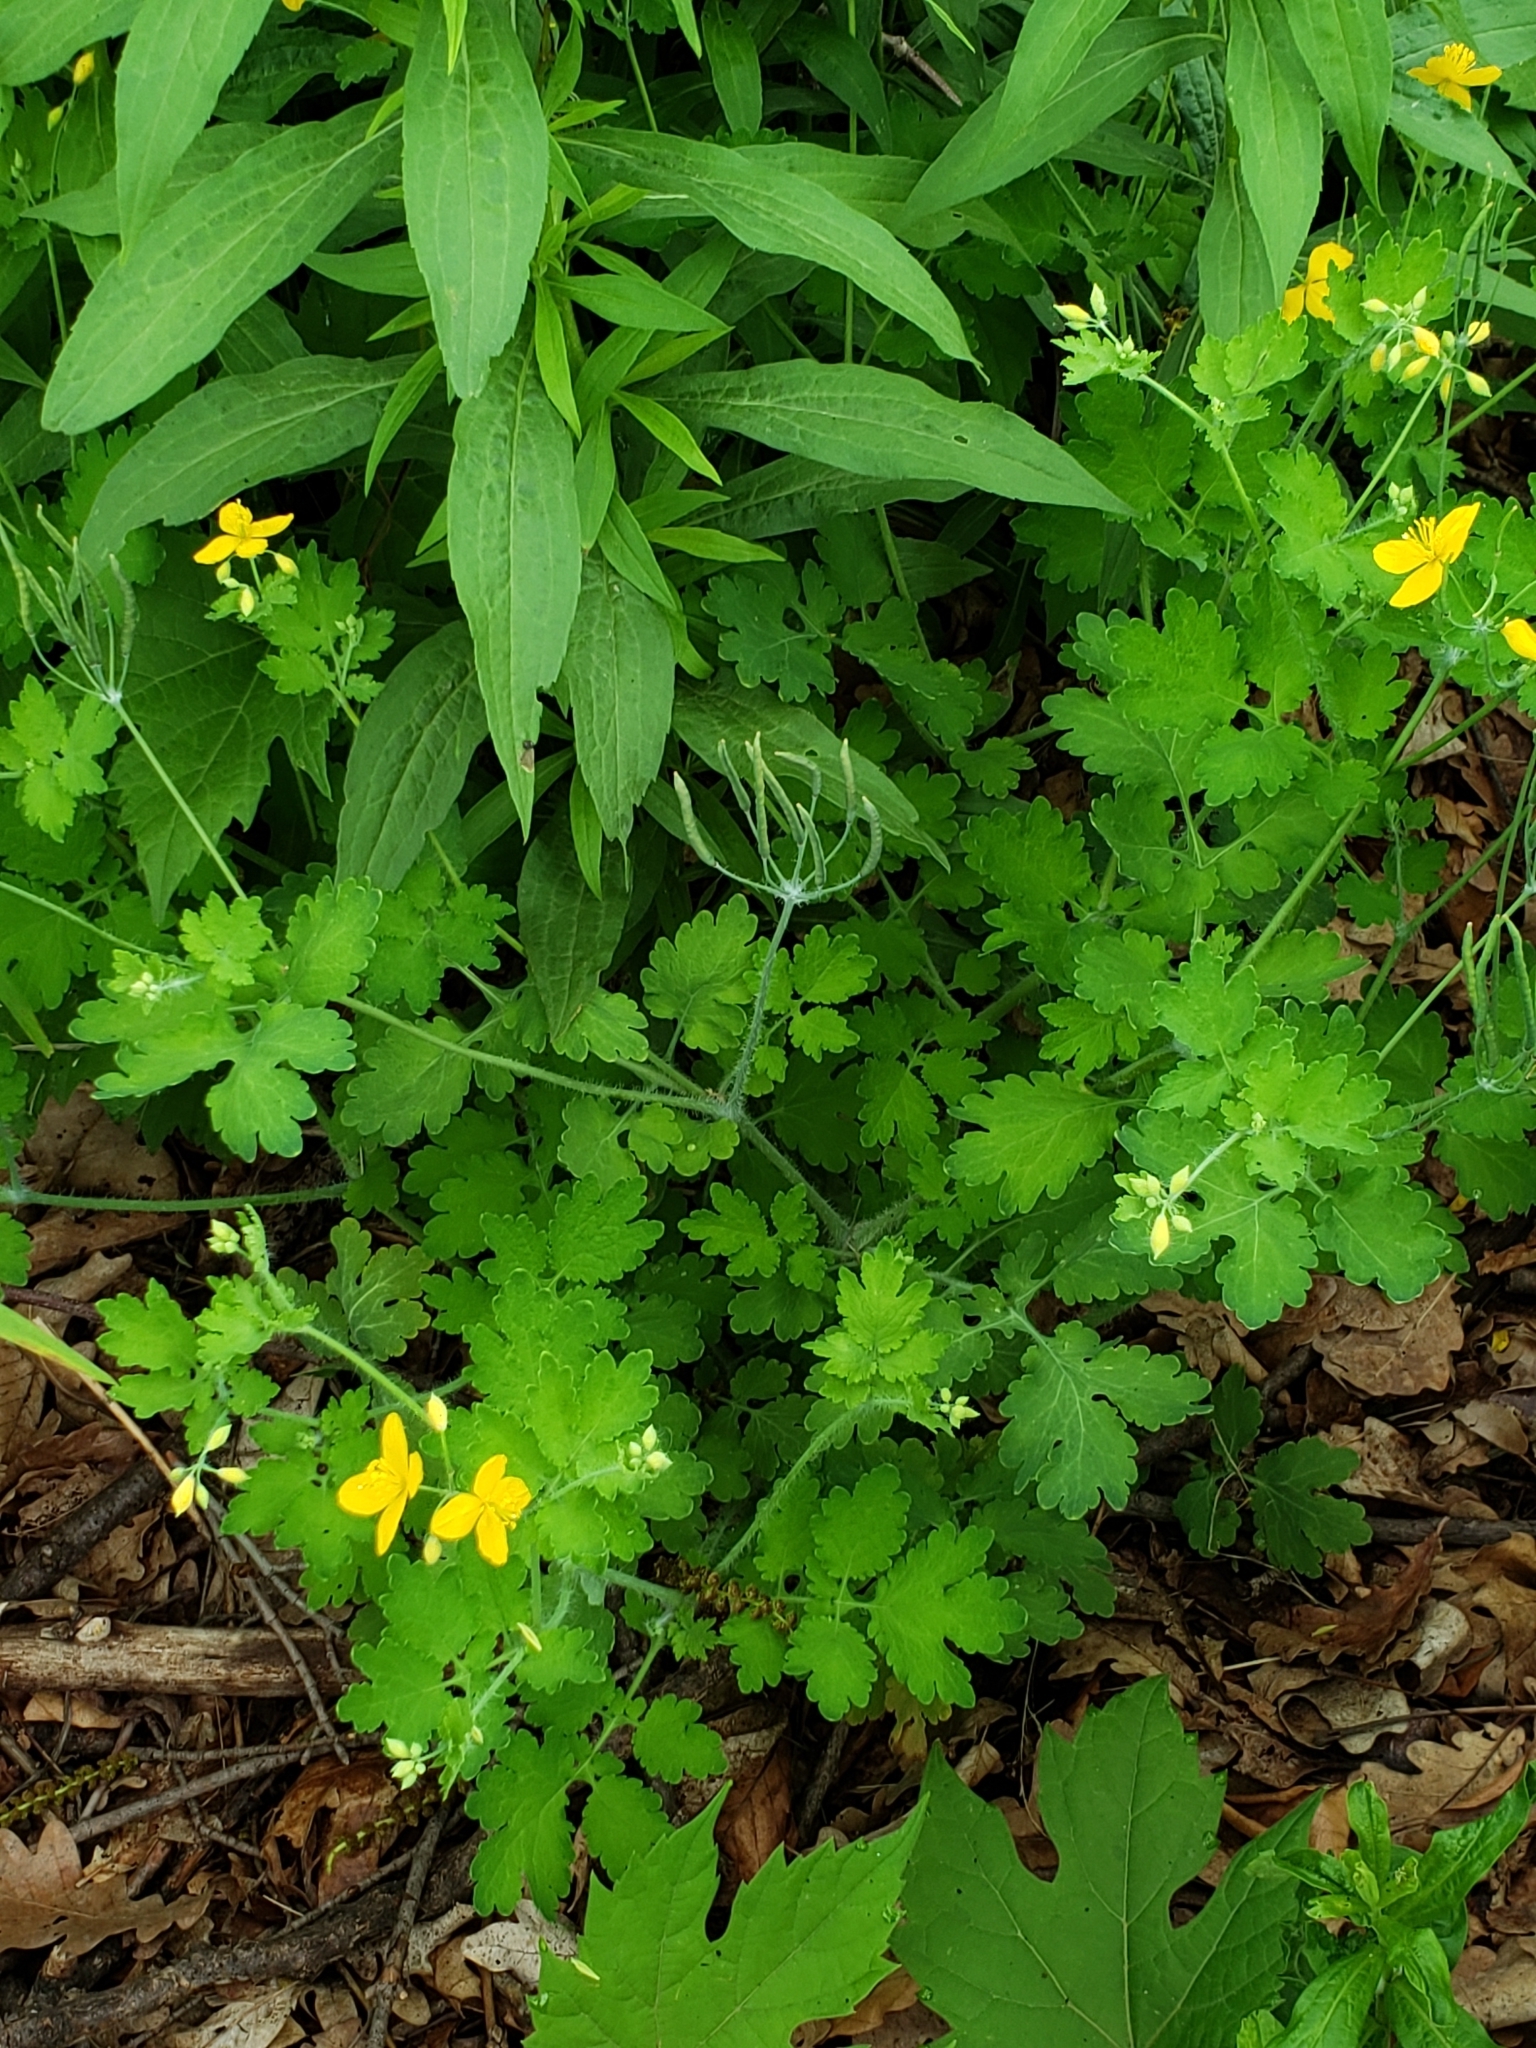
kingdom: Plantae
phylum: Tracheophyta
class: Magnoliopsida
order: Ranunculales
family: Papaveraceae
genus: Chelidonium
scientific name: Chelidonium majus
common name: Greater celandine
